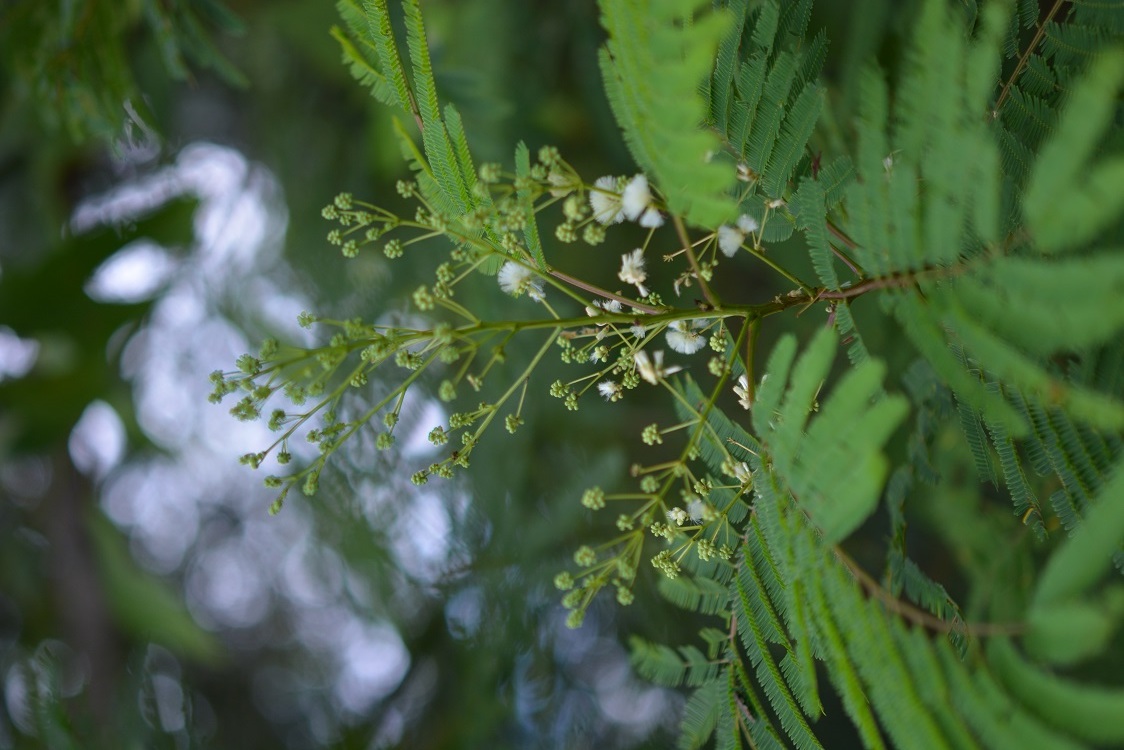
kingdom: Plantae
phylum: Tracheophyta
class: Magnoliopsida
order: Fabales
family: Fabaceae
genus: Acaciella
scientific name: Acaciella angustissima
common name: Prairie acacia
